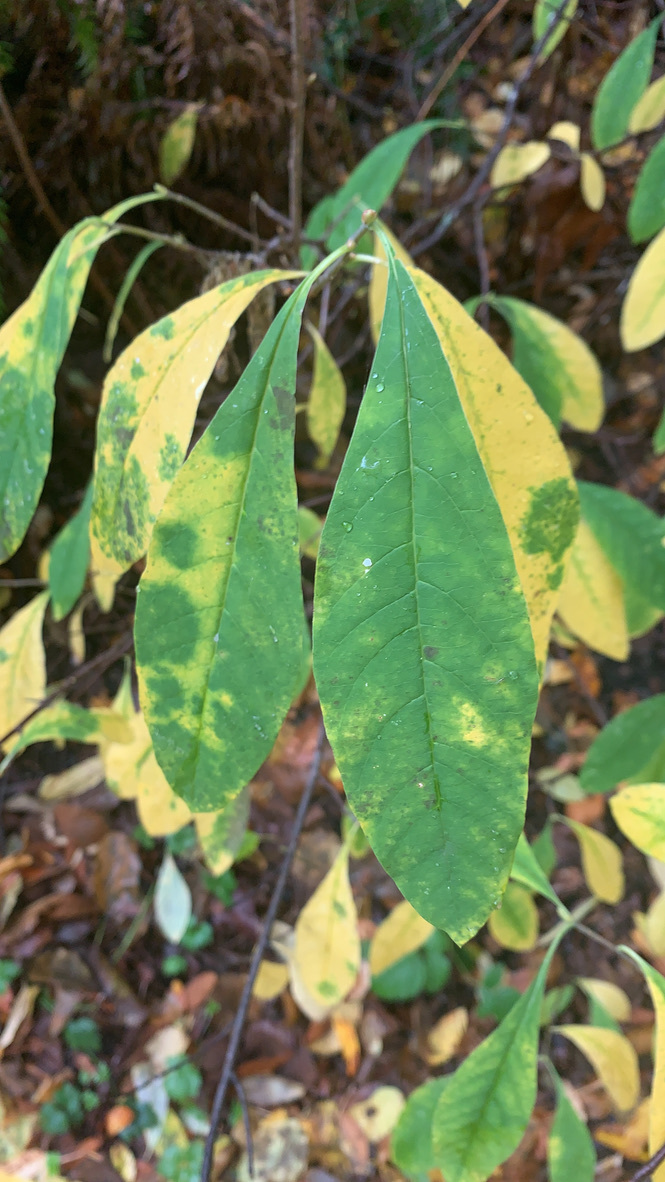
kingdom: Plantae
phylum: Tracheophyta
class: Magnoliopsida
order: Rosales
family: Rosaceae
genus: Oemleria
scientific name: Oemleria cerasiformis
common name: Osoberry
